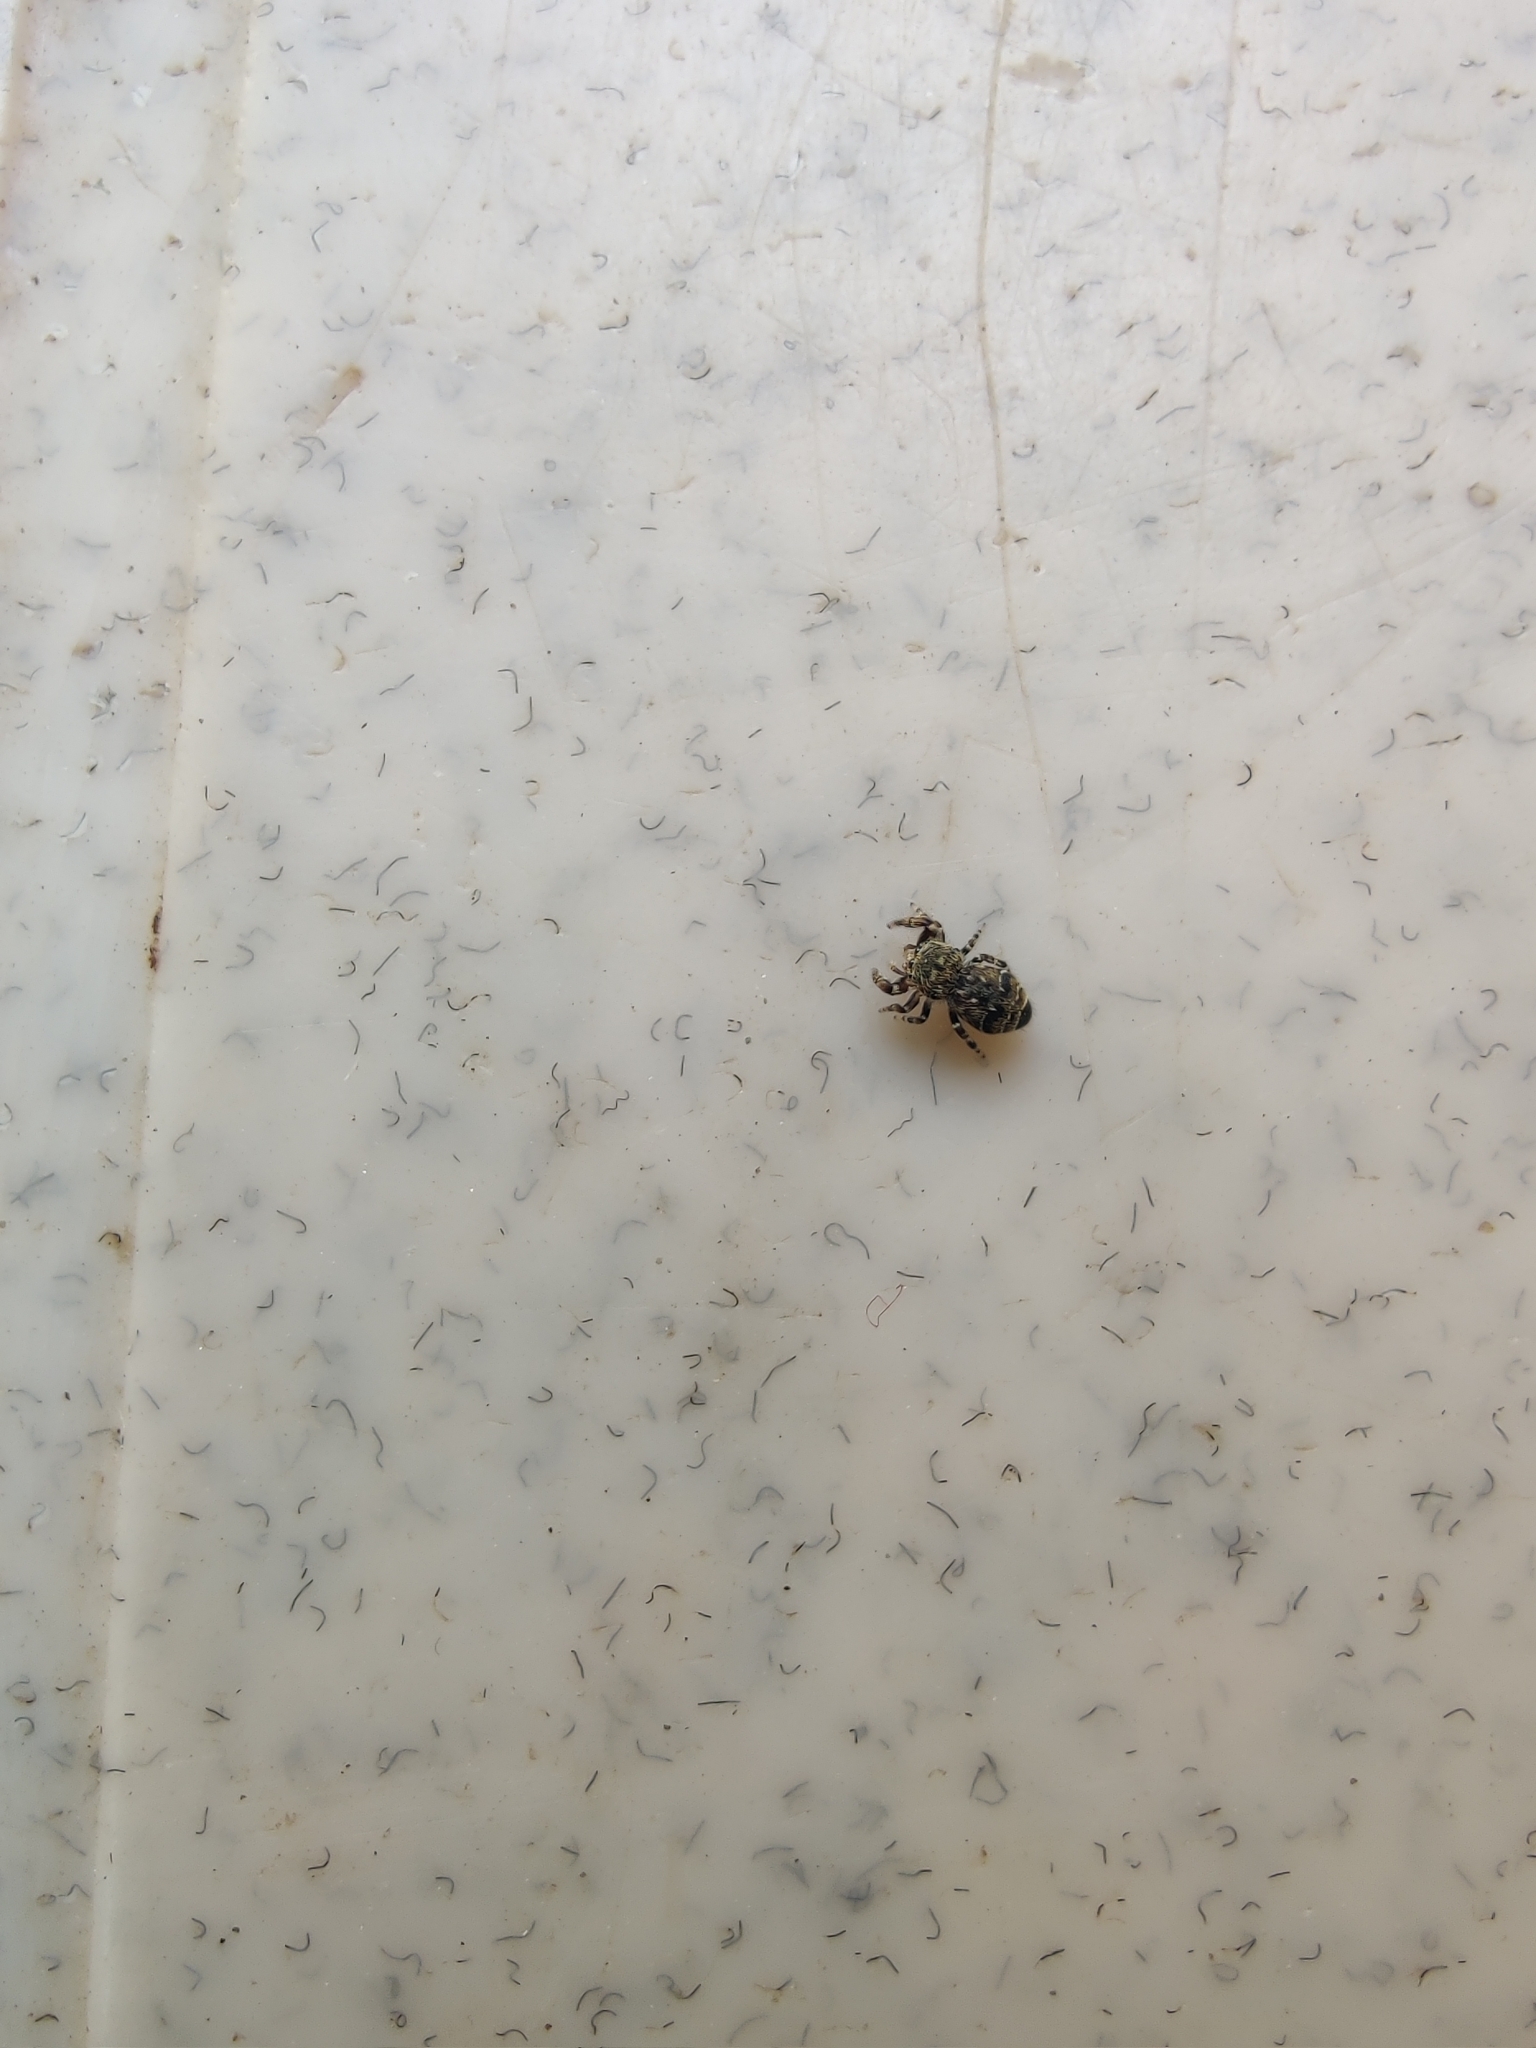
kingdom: Animalia
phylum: Arthropoda
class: Arachnida
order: Araneae
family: Salticidae
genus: Rhene
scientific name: Rhene flavigera
